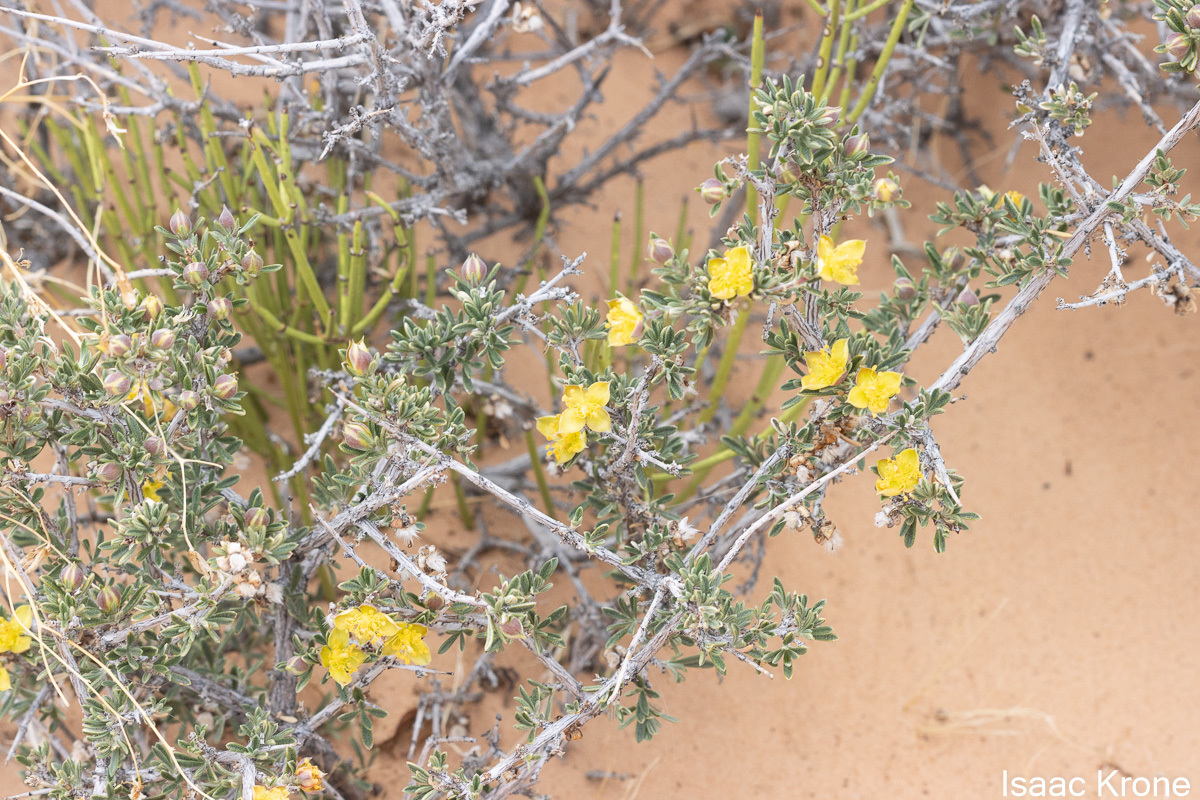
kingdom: Plantae
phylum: Tracheophyta
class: Magnoliopsida
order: Rosales
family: Rosaceae
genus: Coleogyne
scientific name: Coleogyne ramosissima
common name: Blackbrush
